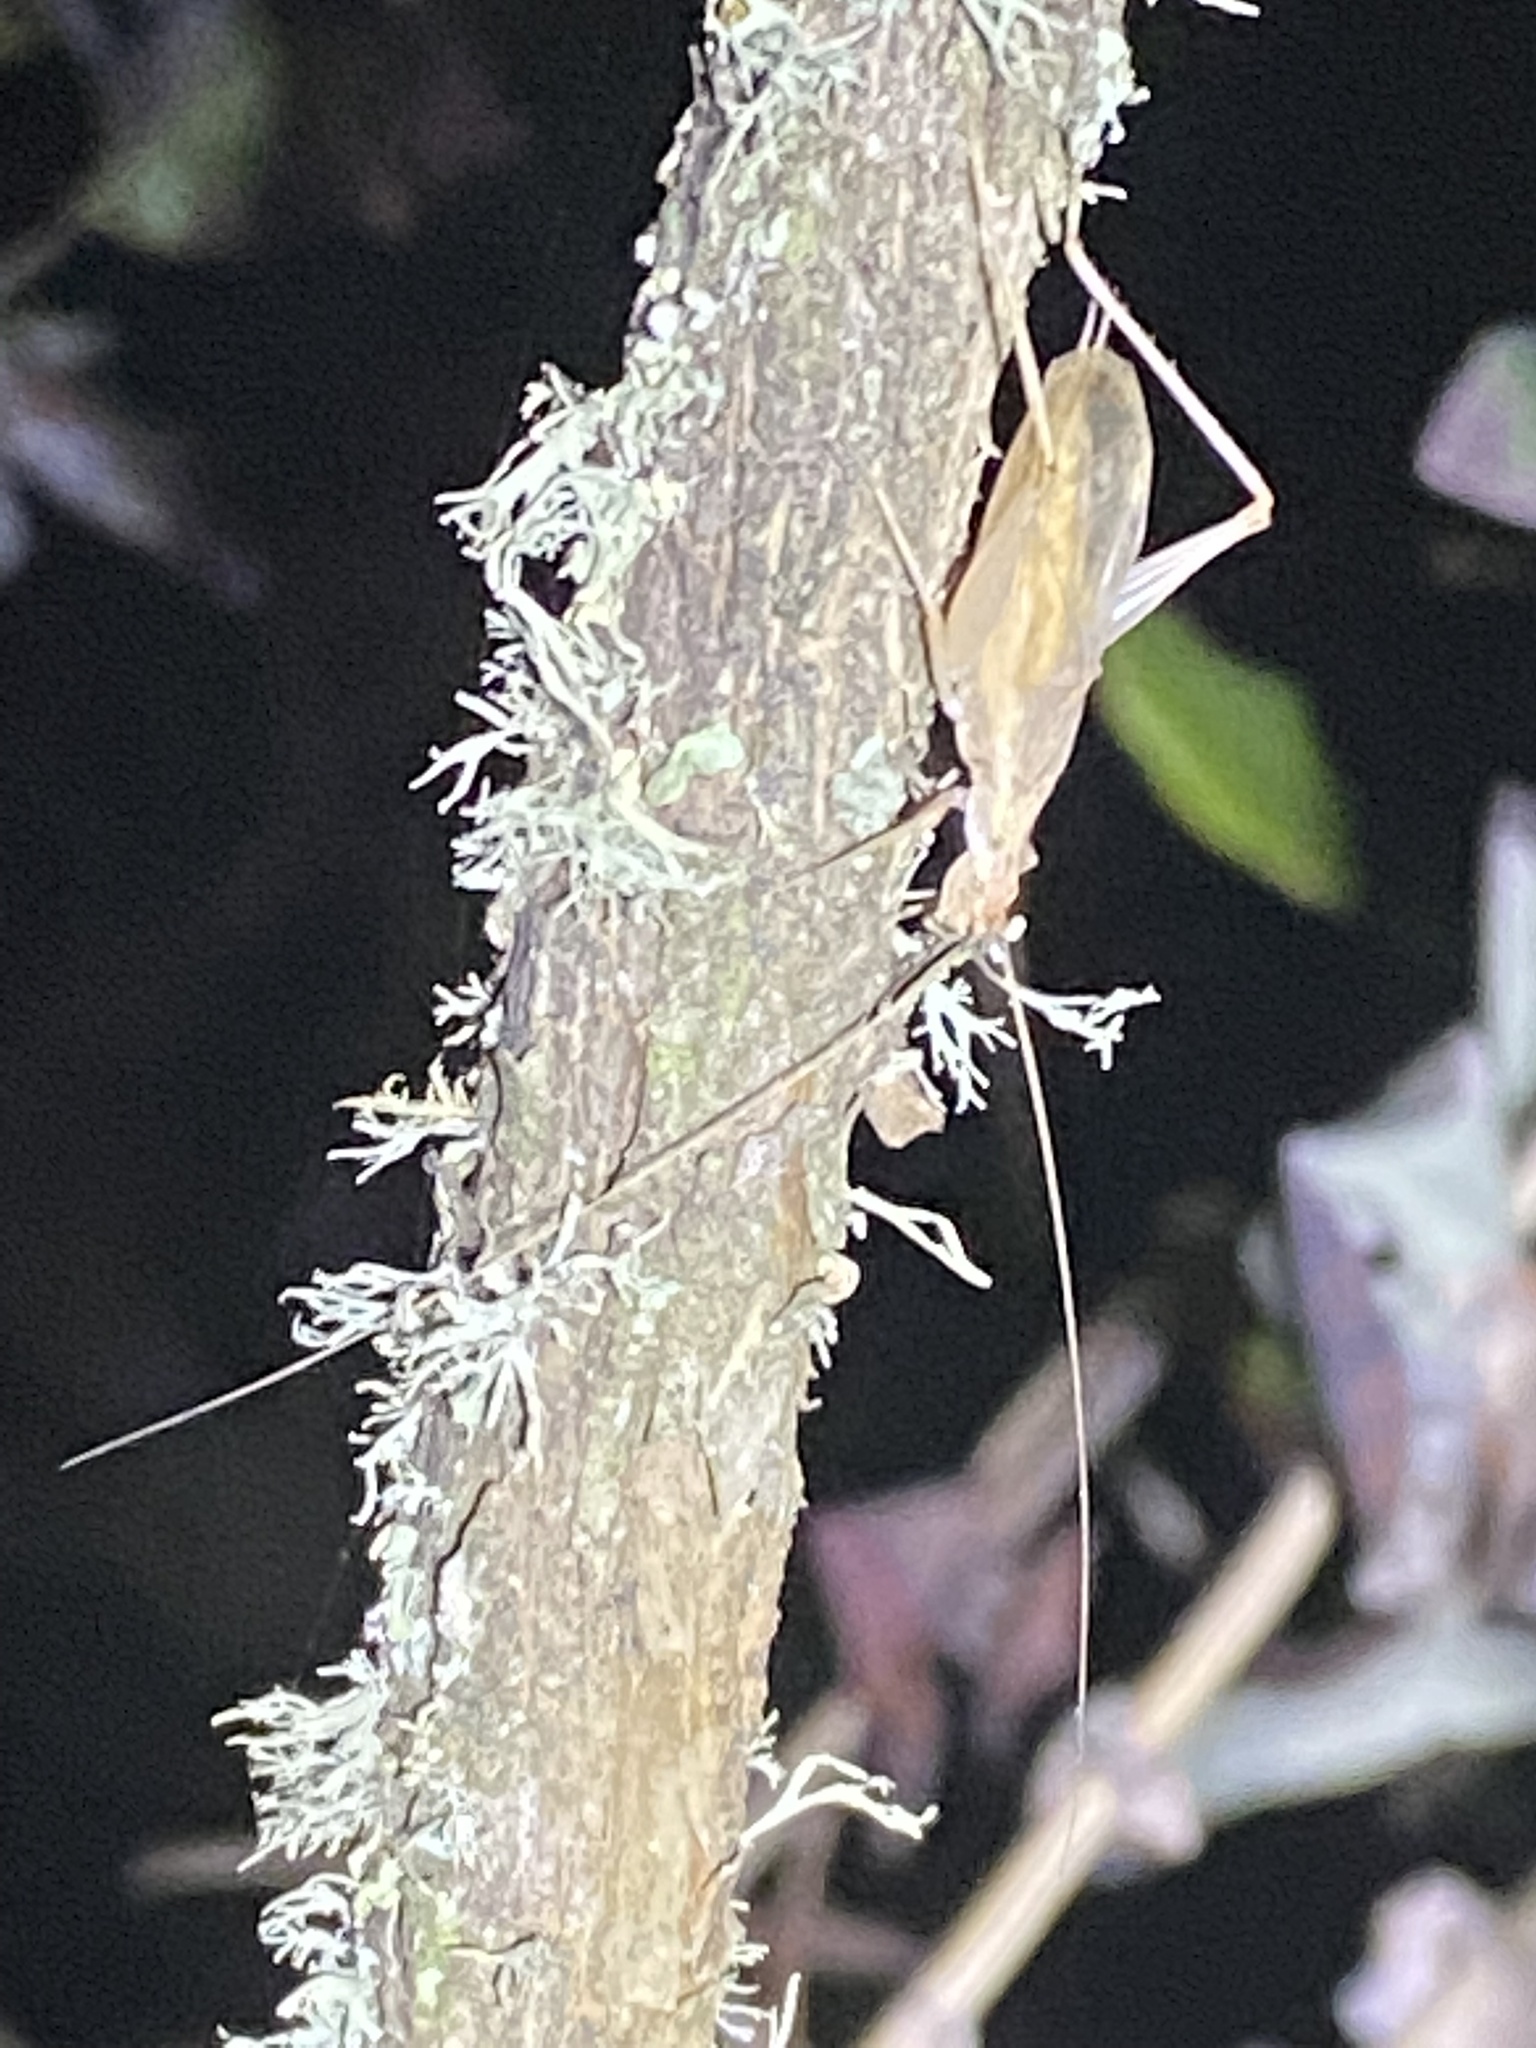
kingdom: Animalia
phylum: Arthropoda
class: Insecta
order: Orthoptera
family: Gryllidae
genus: Oecanthus
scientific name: Oecanthus californicus
